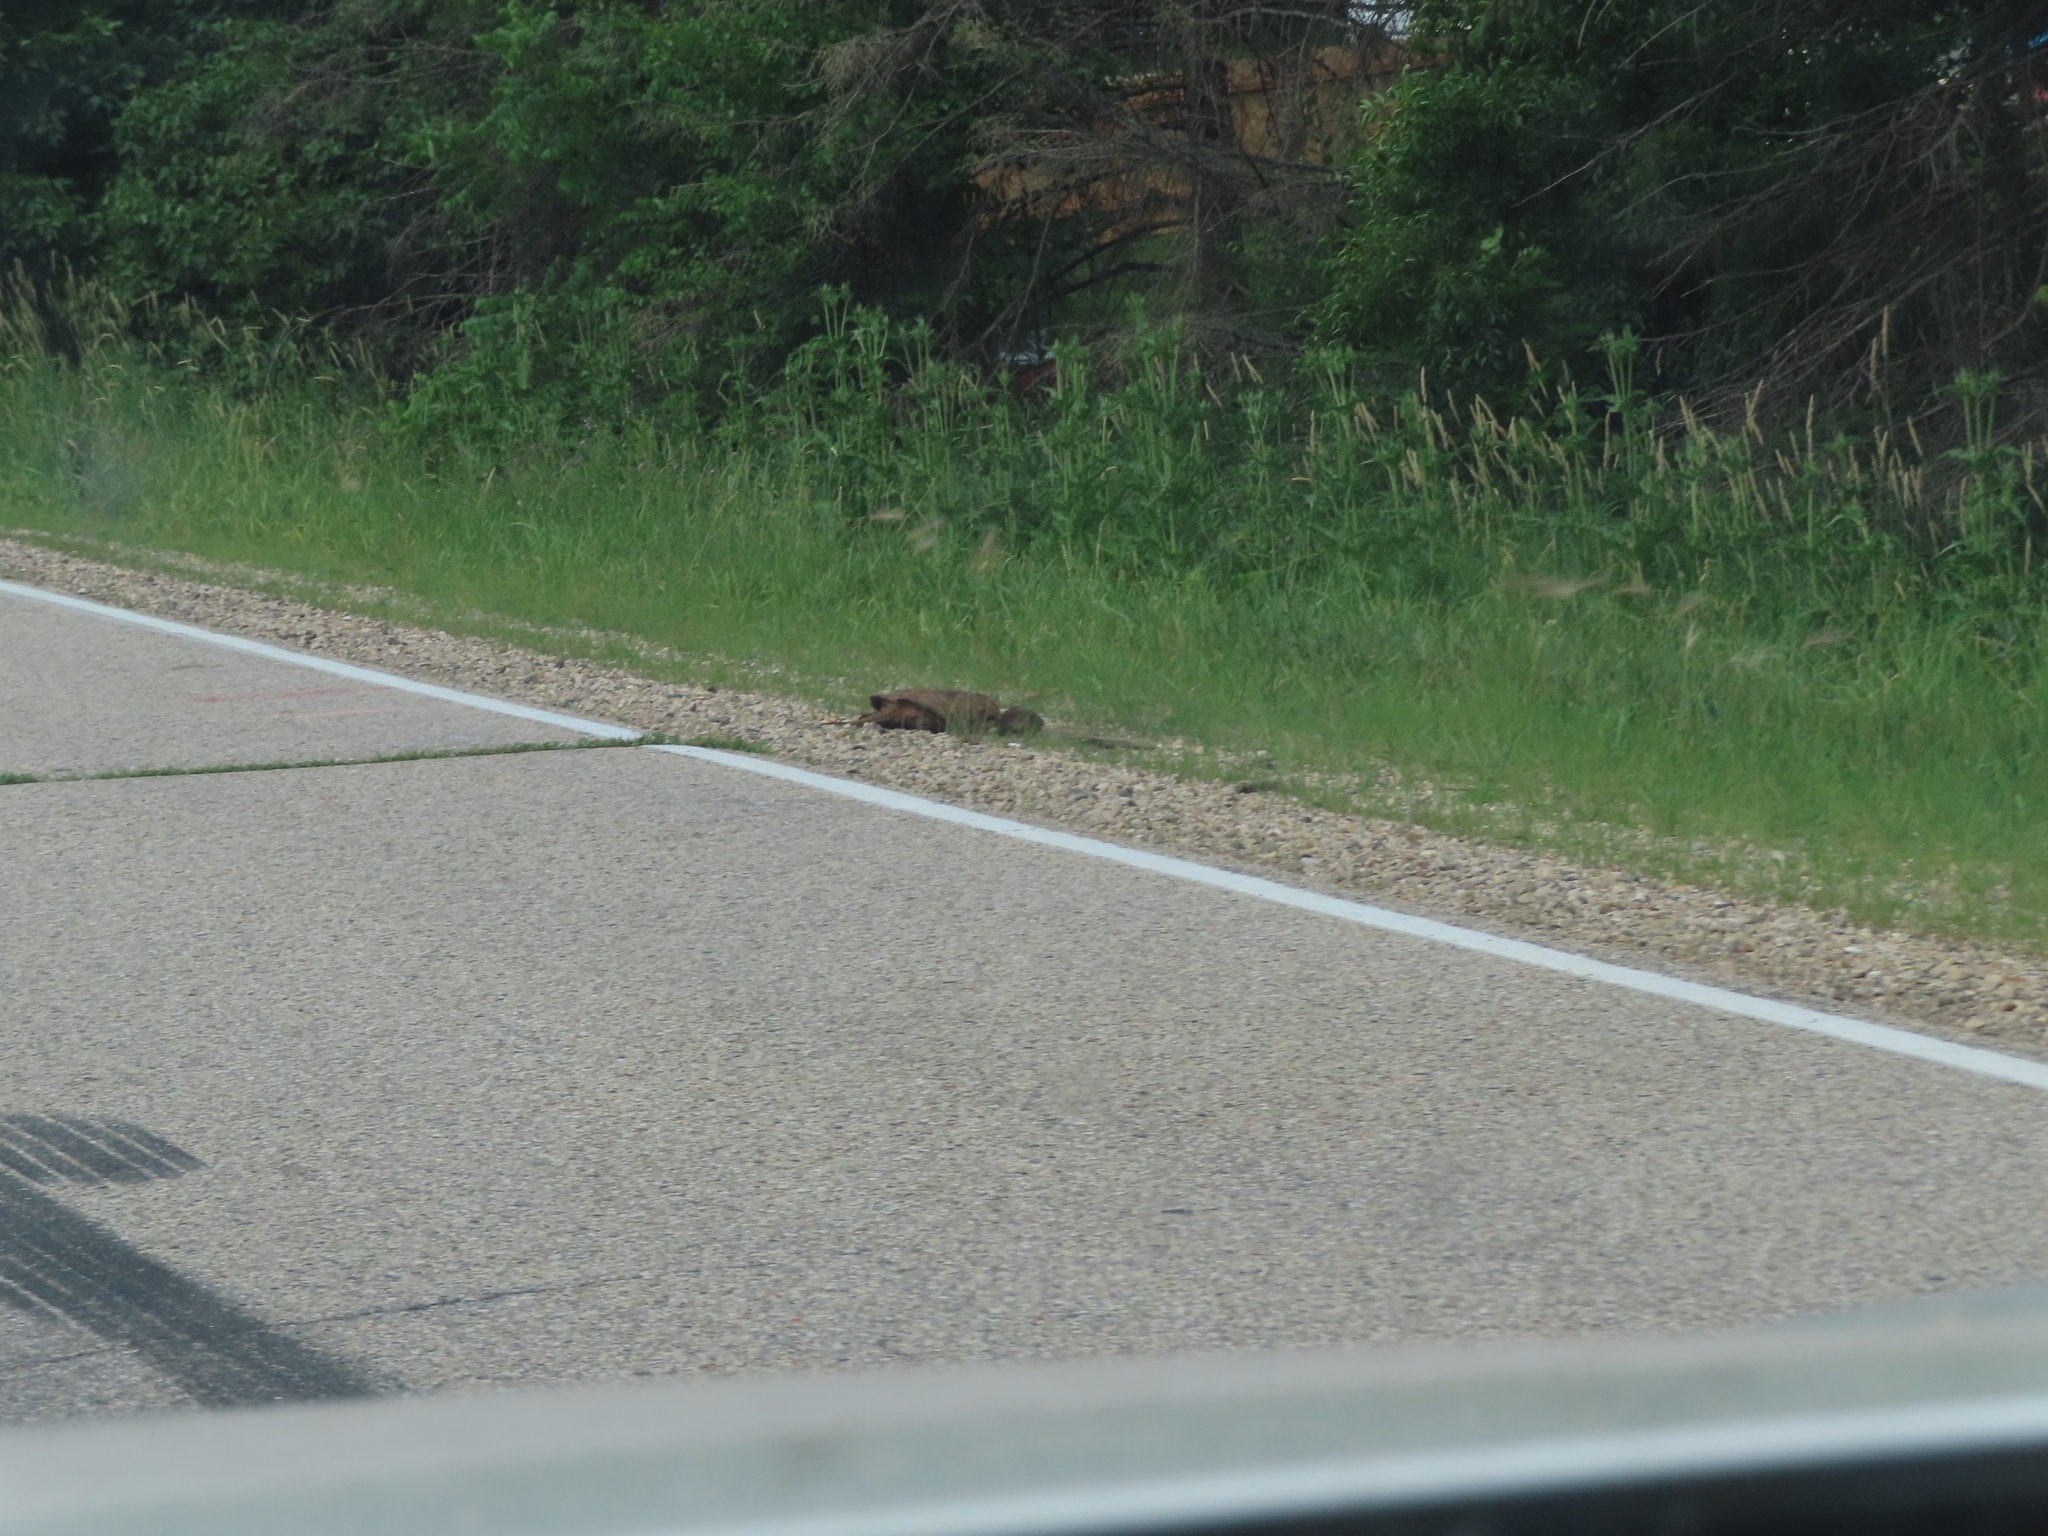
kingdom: Animalia
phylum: Chordata
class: Testudines
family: Chelydridae
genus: Chelydra
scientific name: Chelydra serpentina
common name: Common snapping turtle
